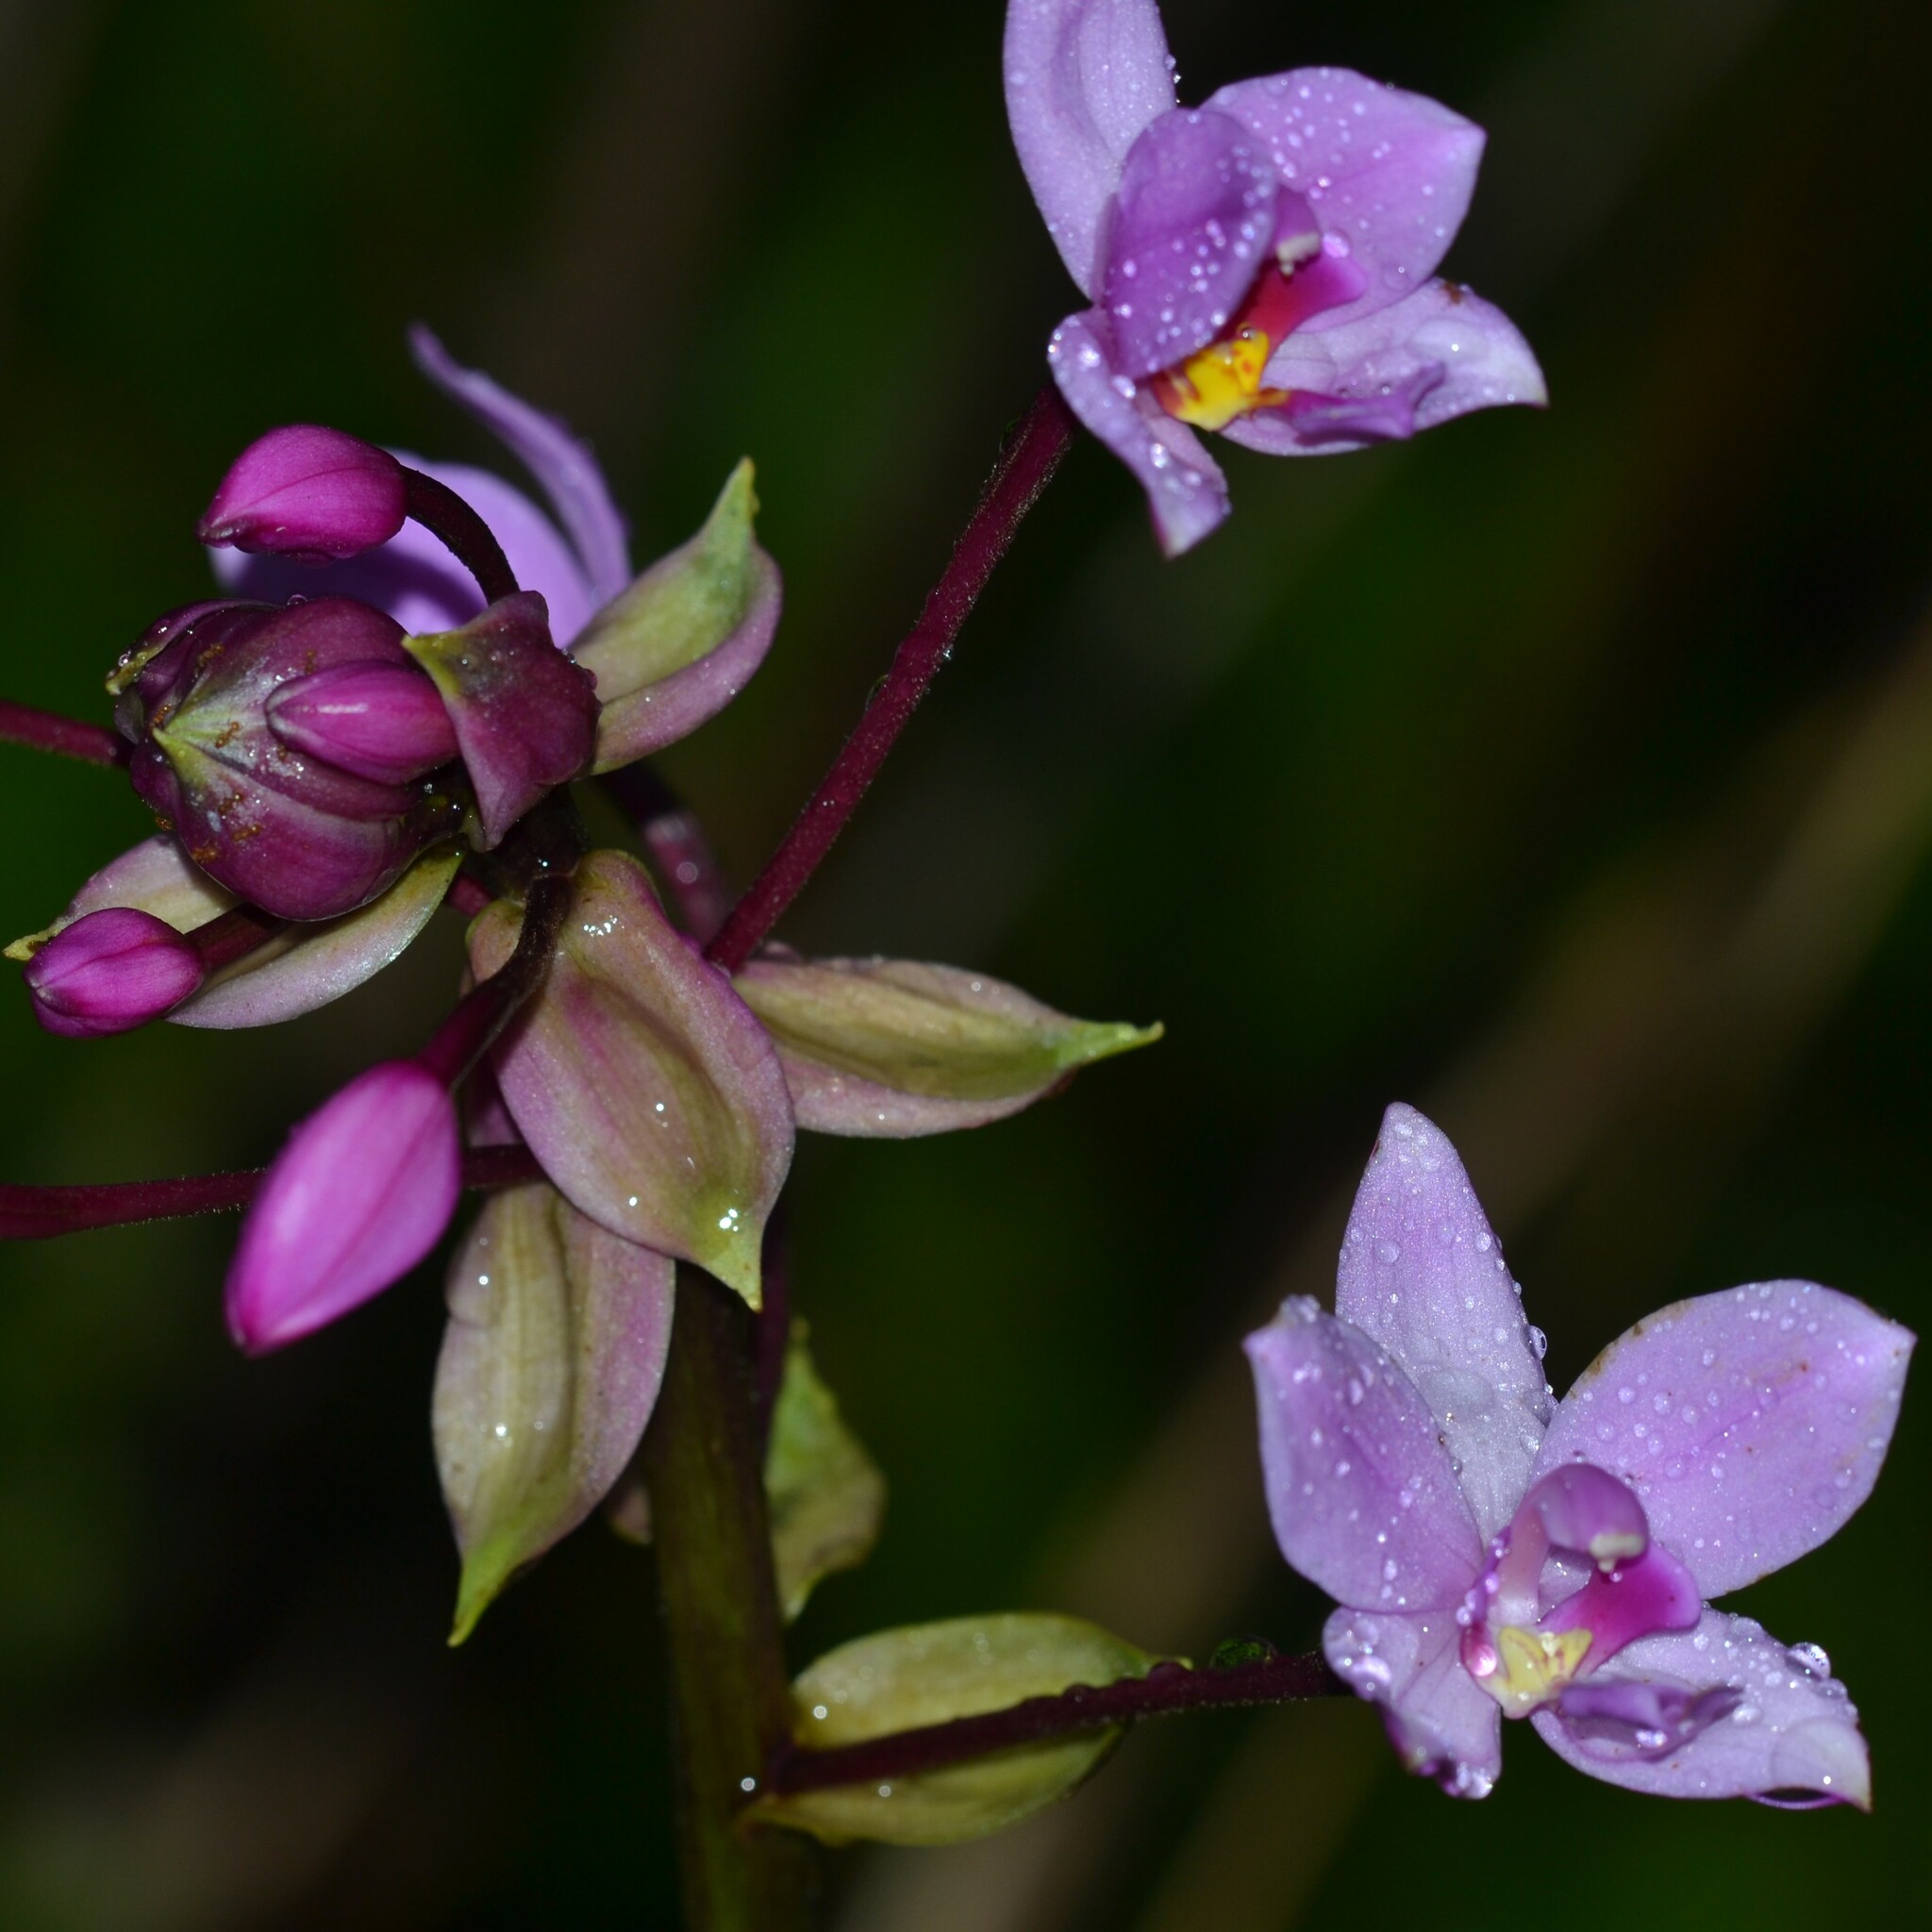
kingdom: Plantae
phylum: Tracheophyta
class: Liliopsida
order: Asparagales
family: Orchidaceae
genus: Spathoglottis
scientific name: Spathoglottis plicata
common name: Philippine ground orchid
